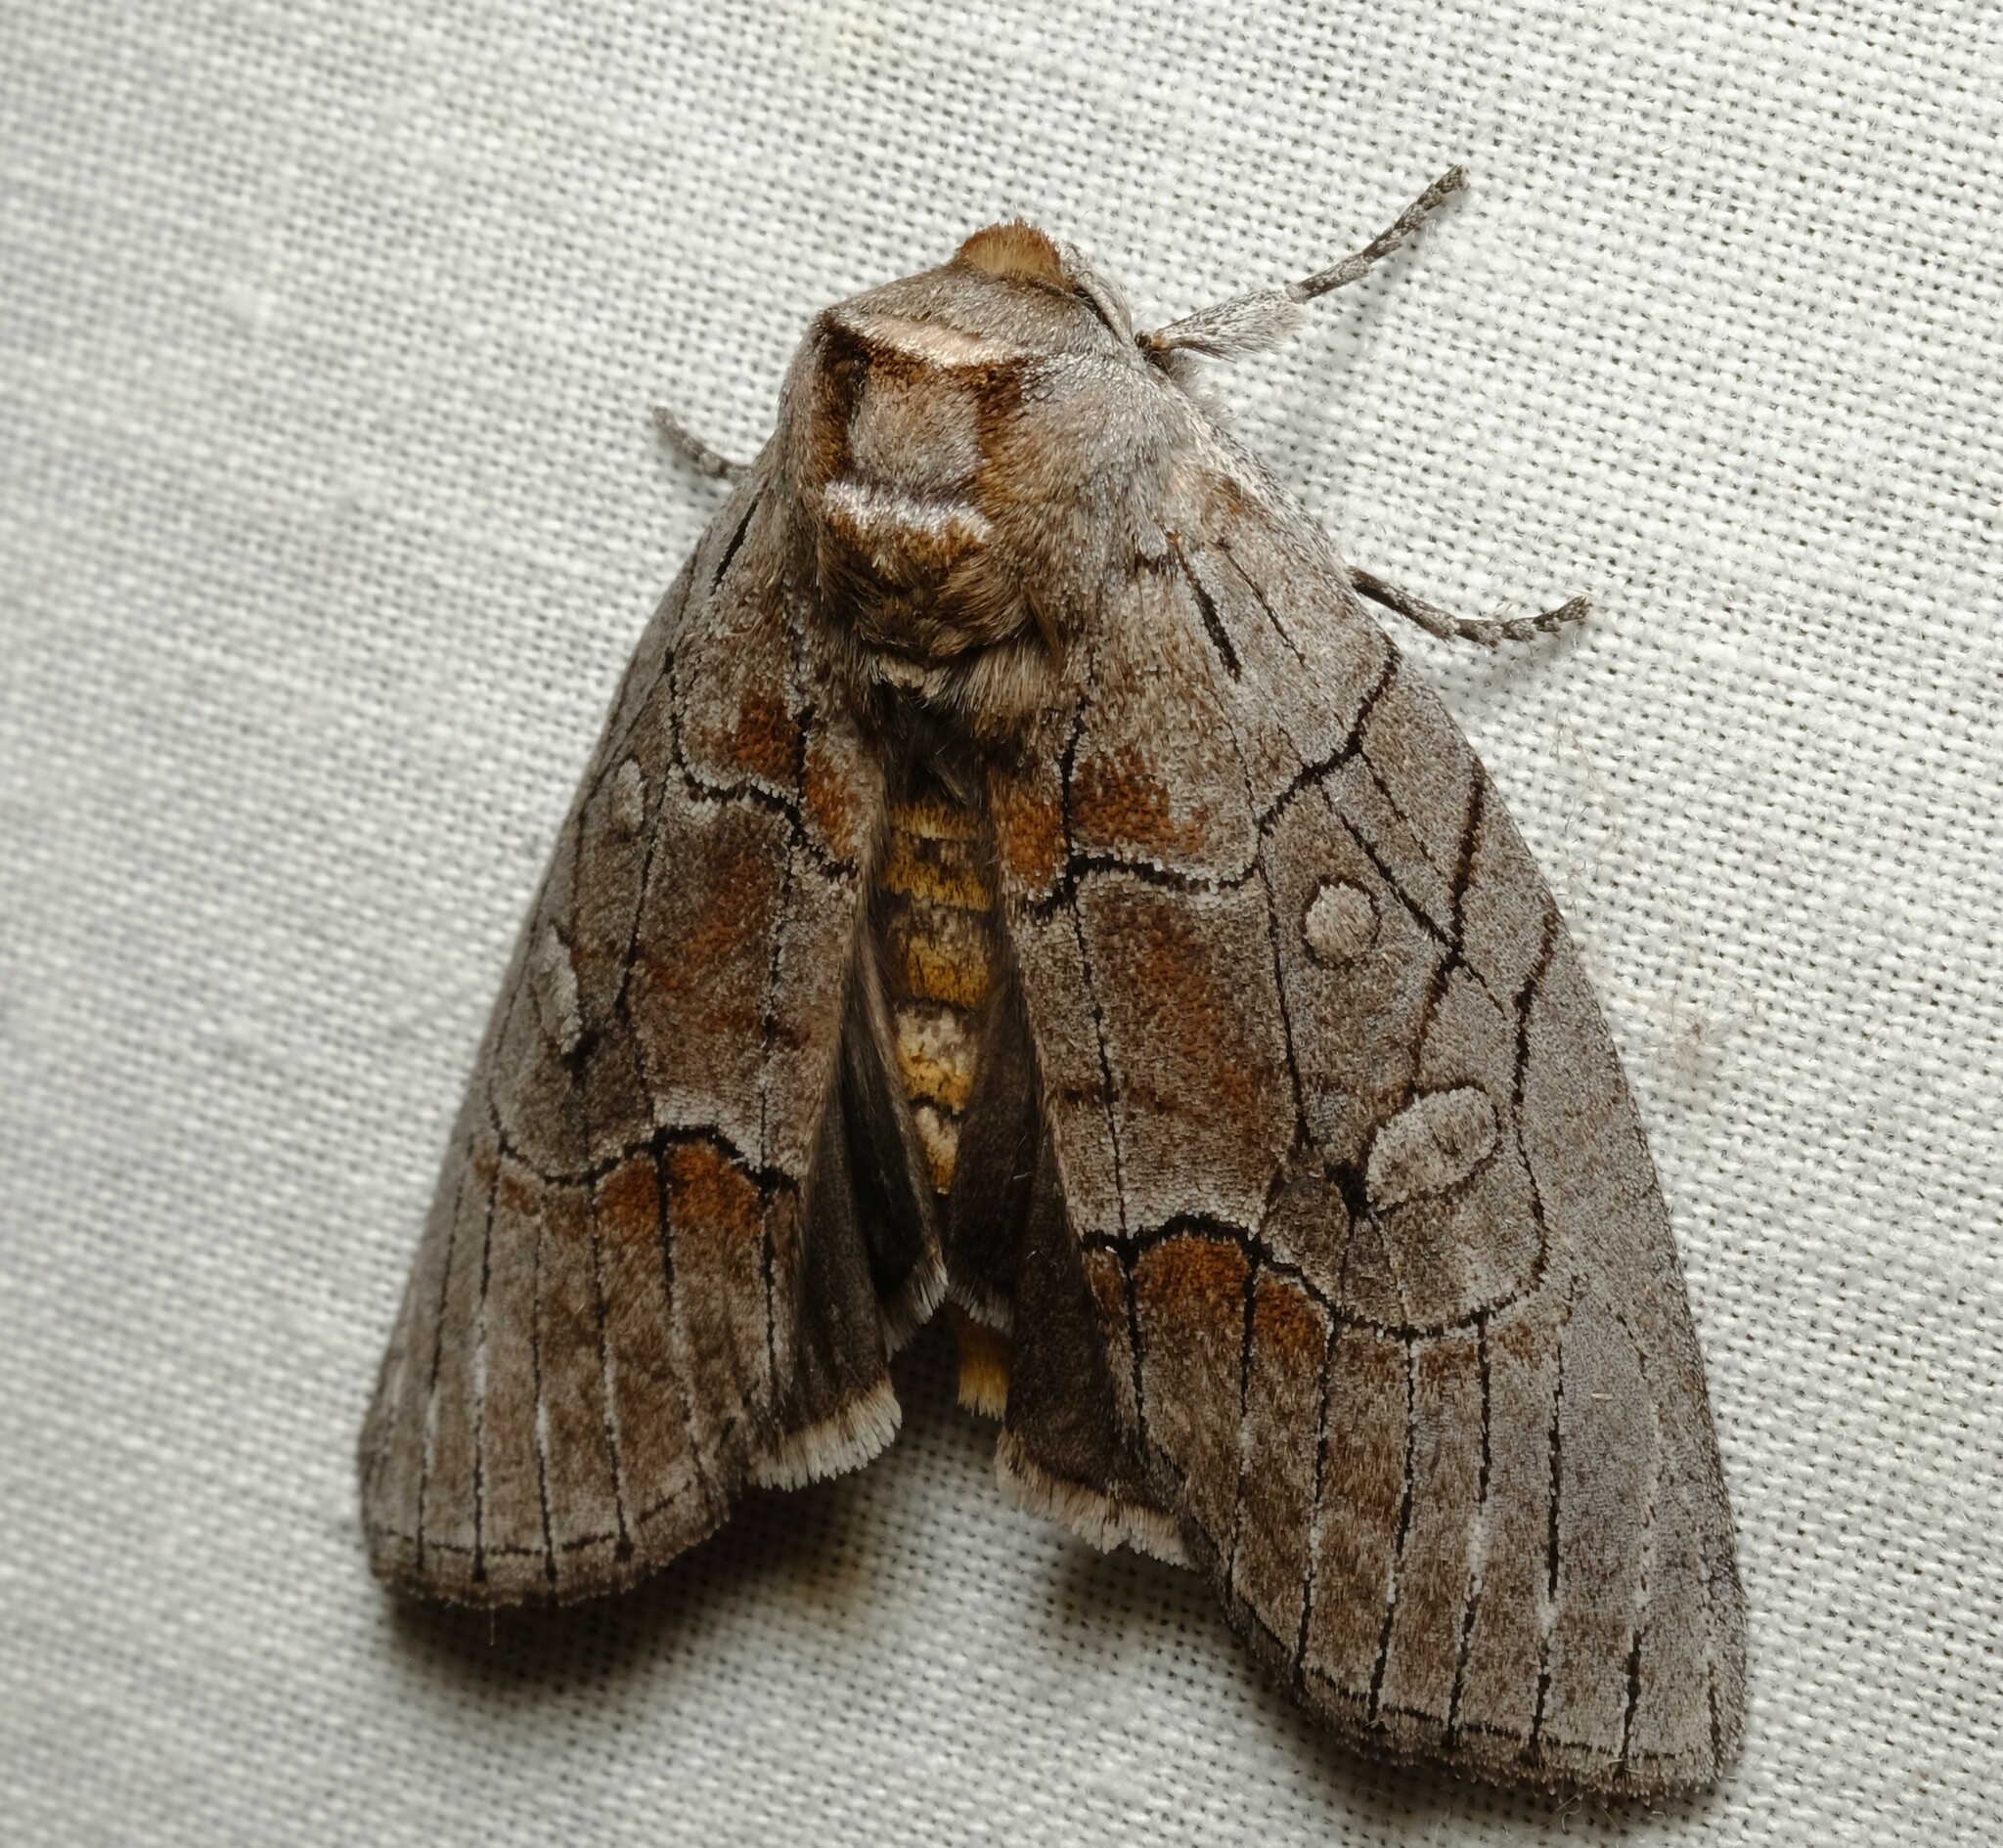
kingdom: Animalia
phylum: Arthropoda
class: Insecta
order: Lepidoptera
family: Oenosandridae
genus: Discophlebia
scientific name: Discophlebia
